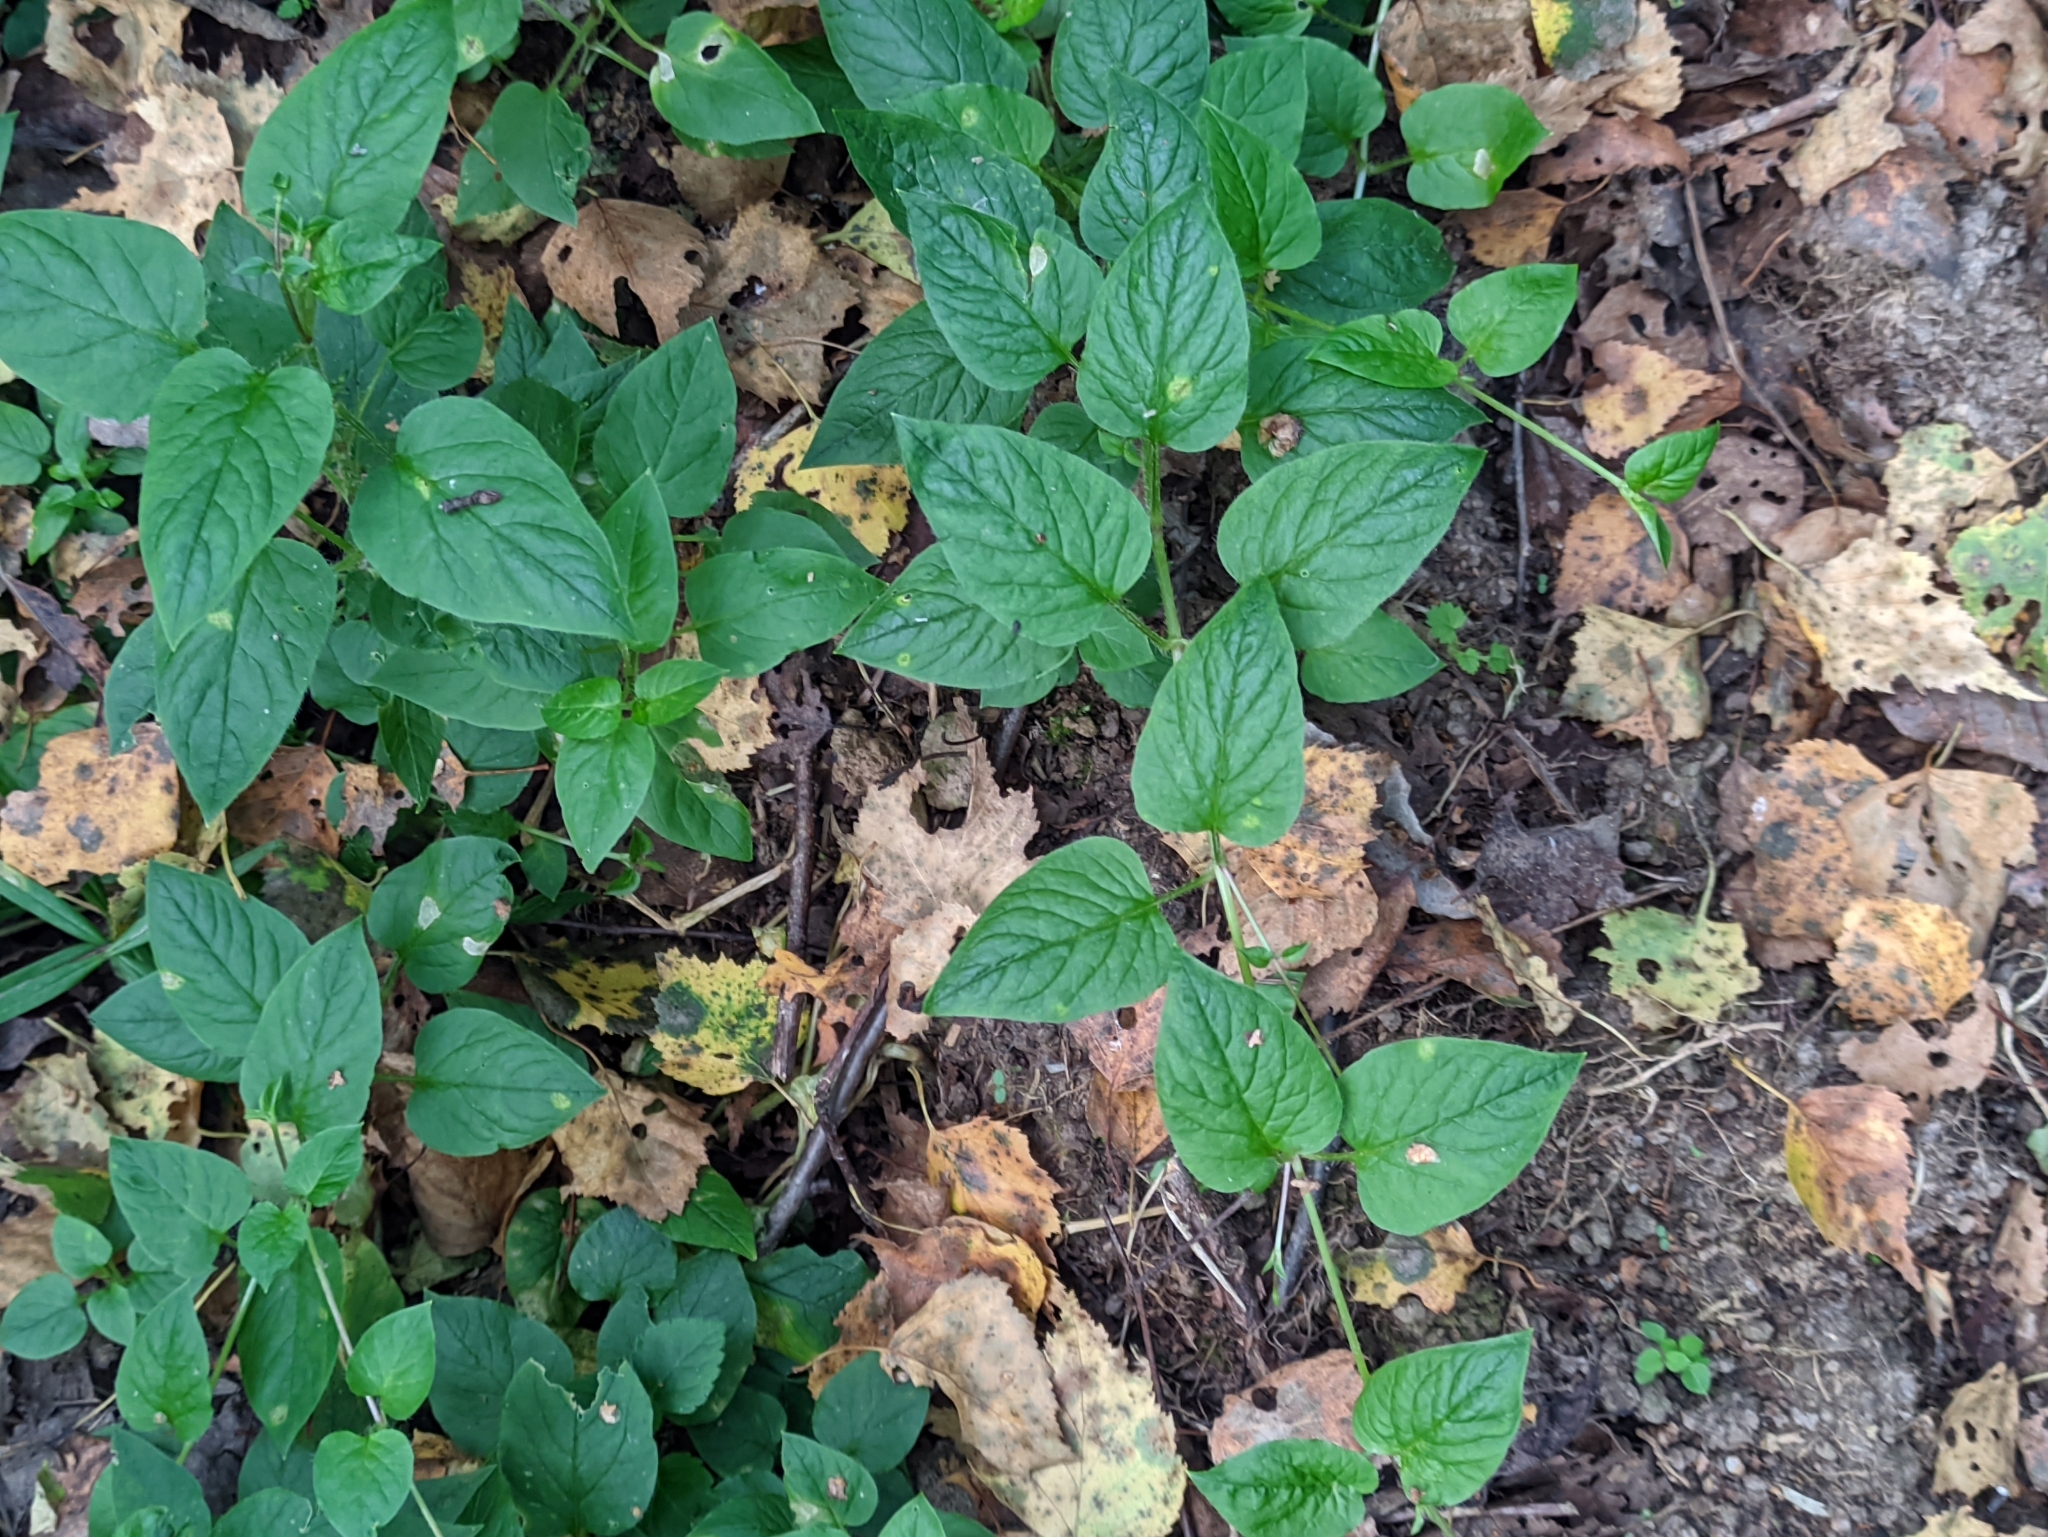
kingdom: Plantae
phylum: Tracheophyta
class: Magnoliopsida
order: Caryophyllales
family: Caryophyllaceae
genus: Stellaria
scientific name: Stellaria nemorum
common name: Wood stitchwort
